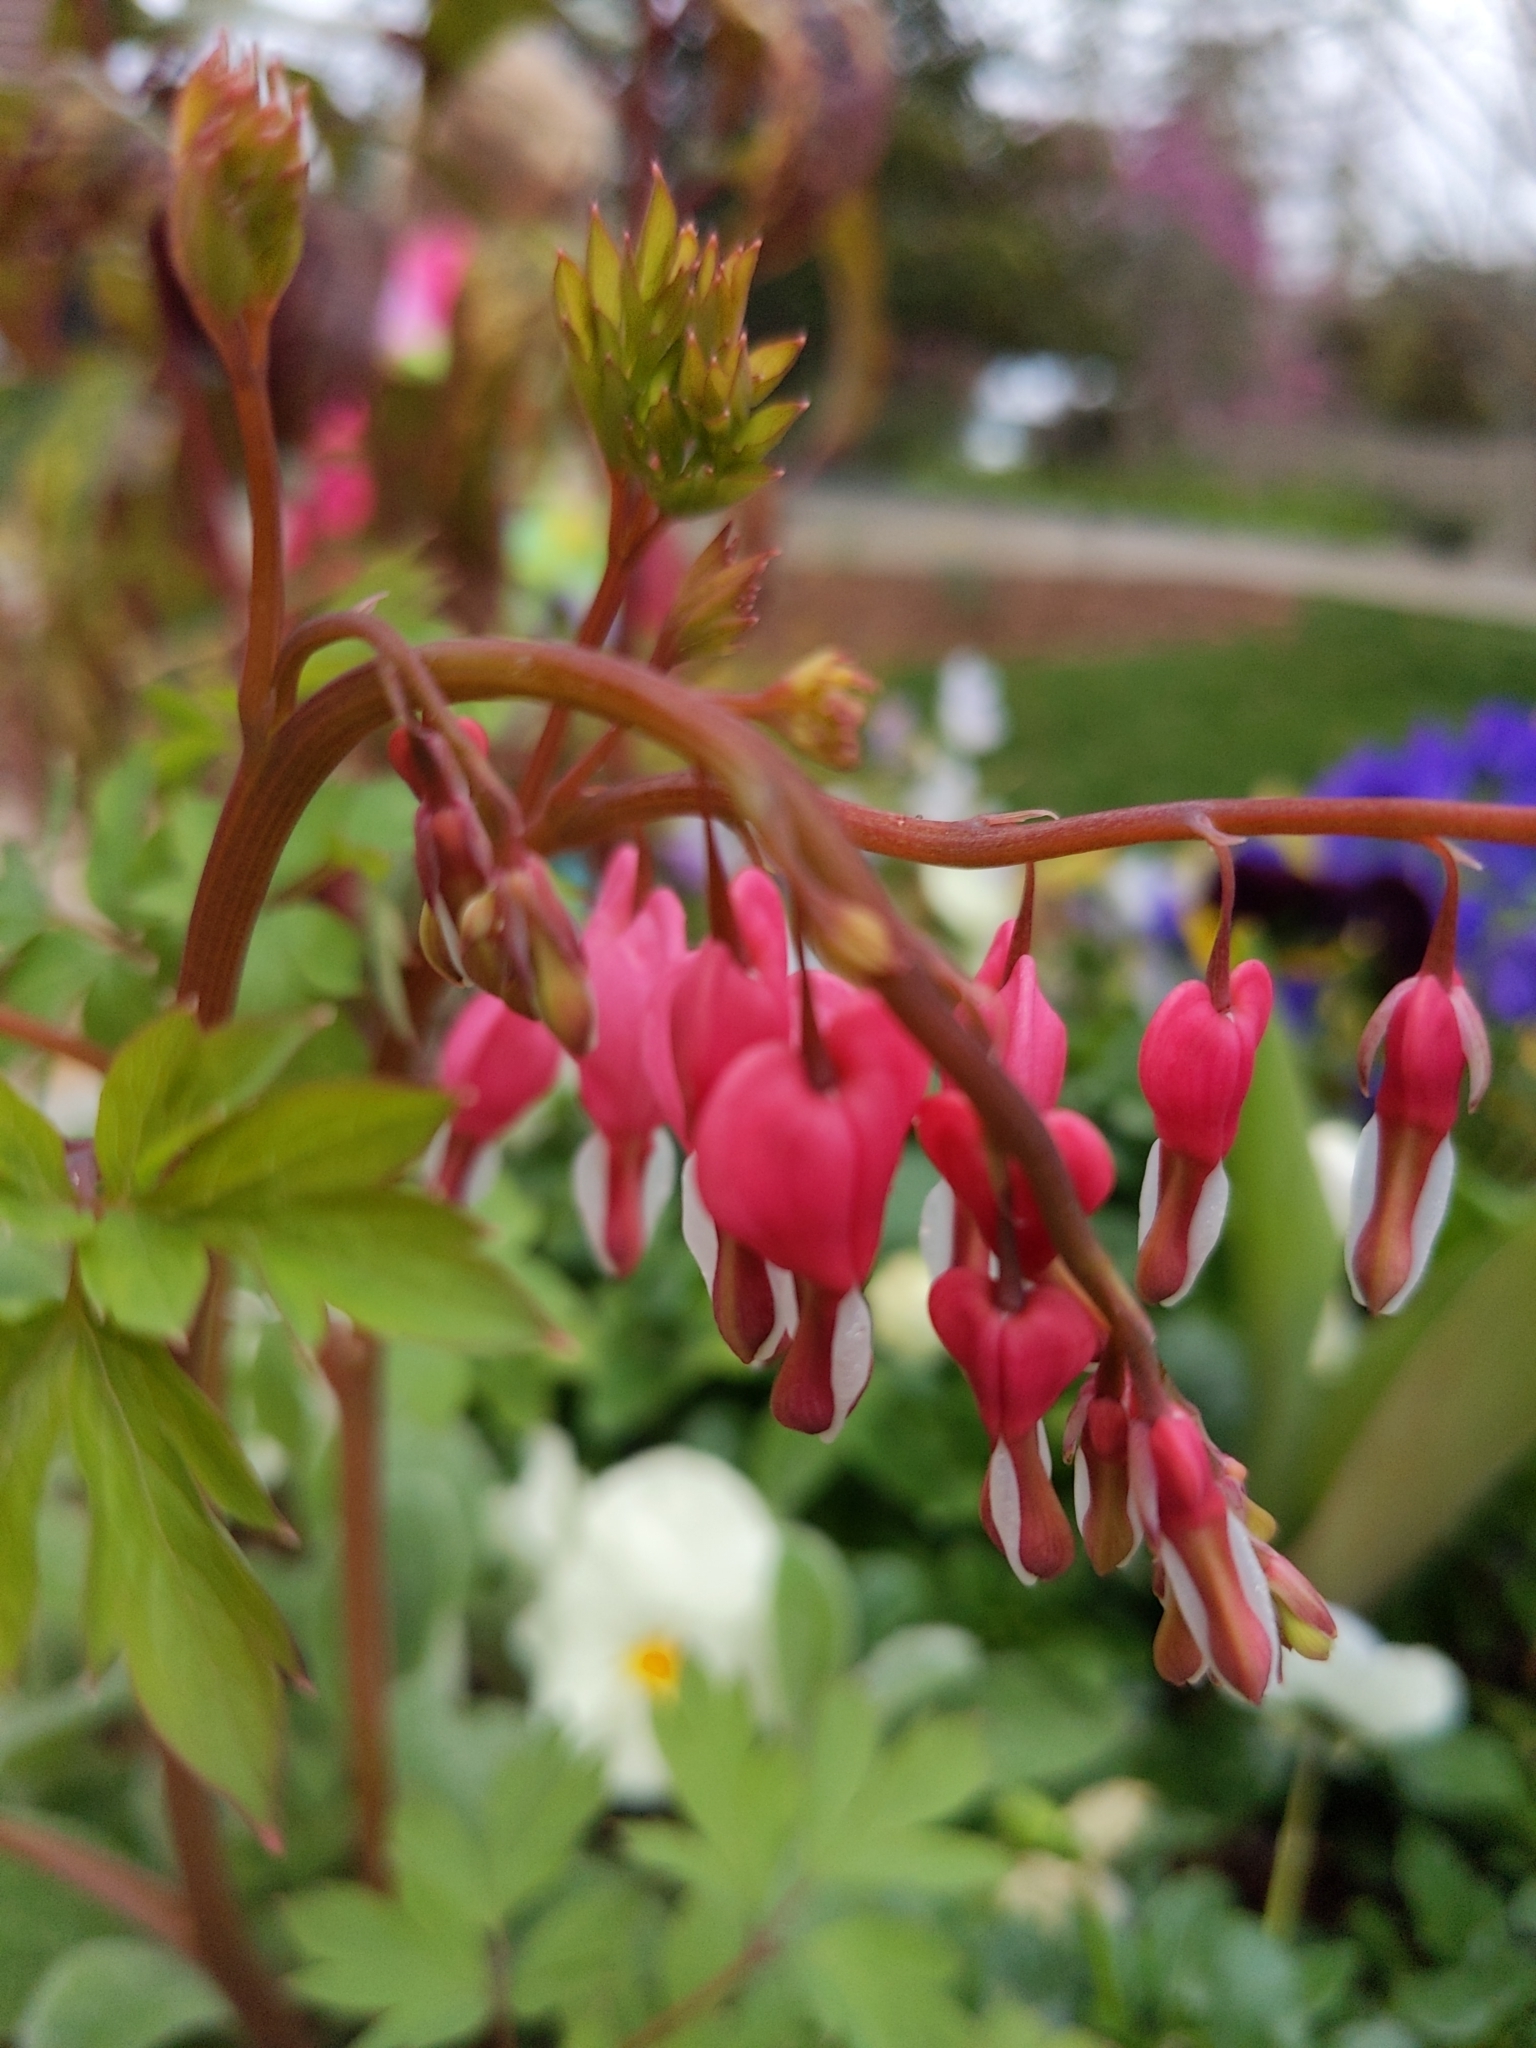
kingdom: Plantae
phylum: Tracheophyta
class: Magnoliopsida
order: Ranunculales
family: Papaveraceae
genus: Lamprocapnos
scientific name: Lamprocapnos spectabilis
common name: Asian bleeding-heart
